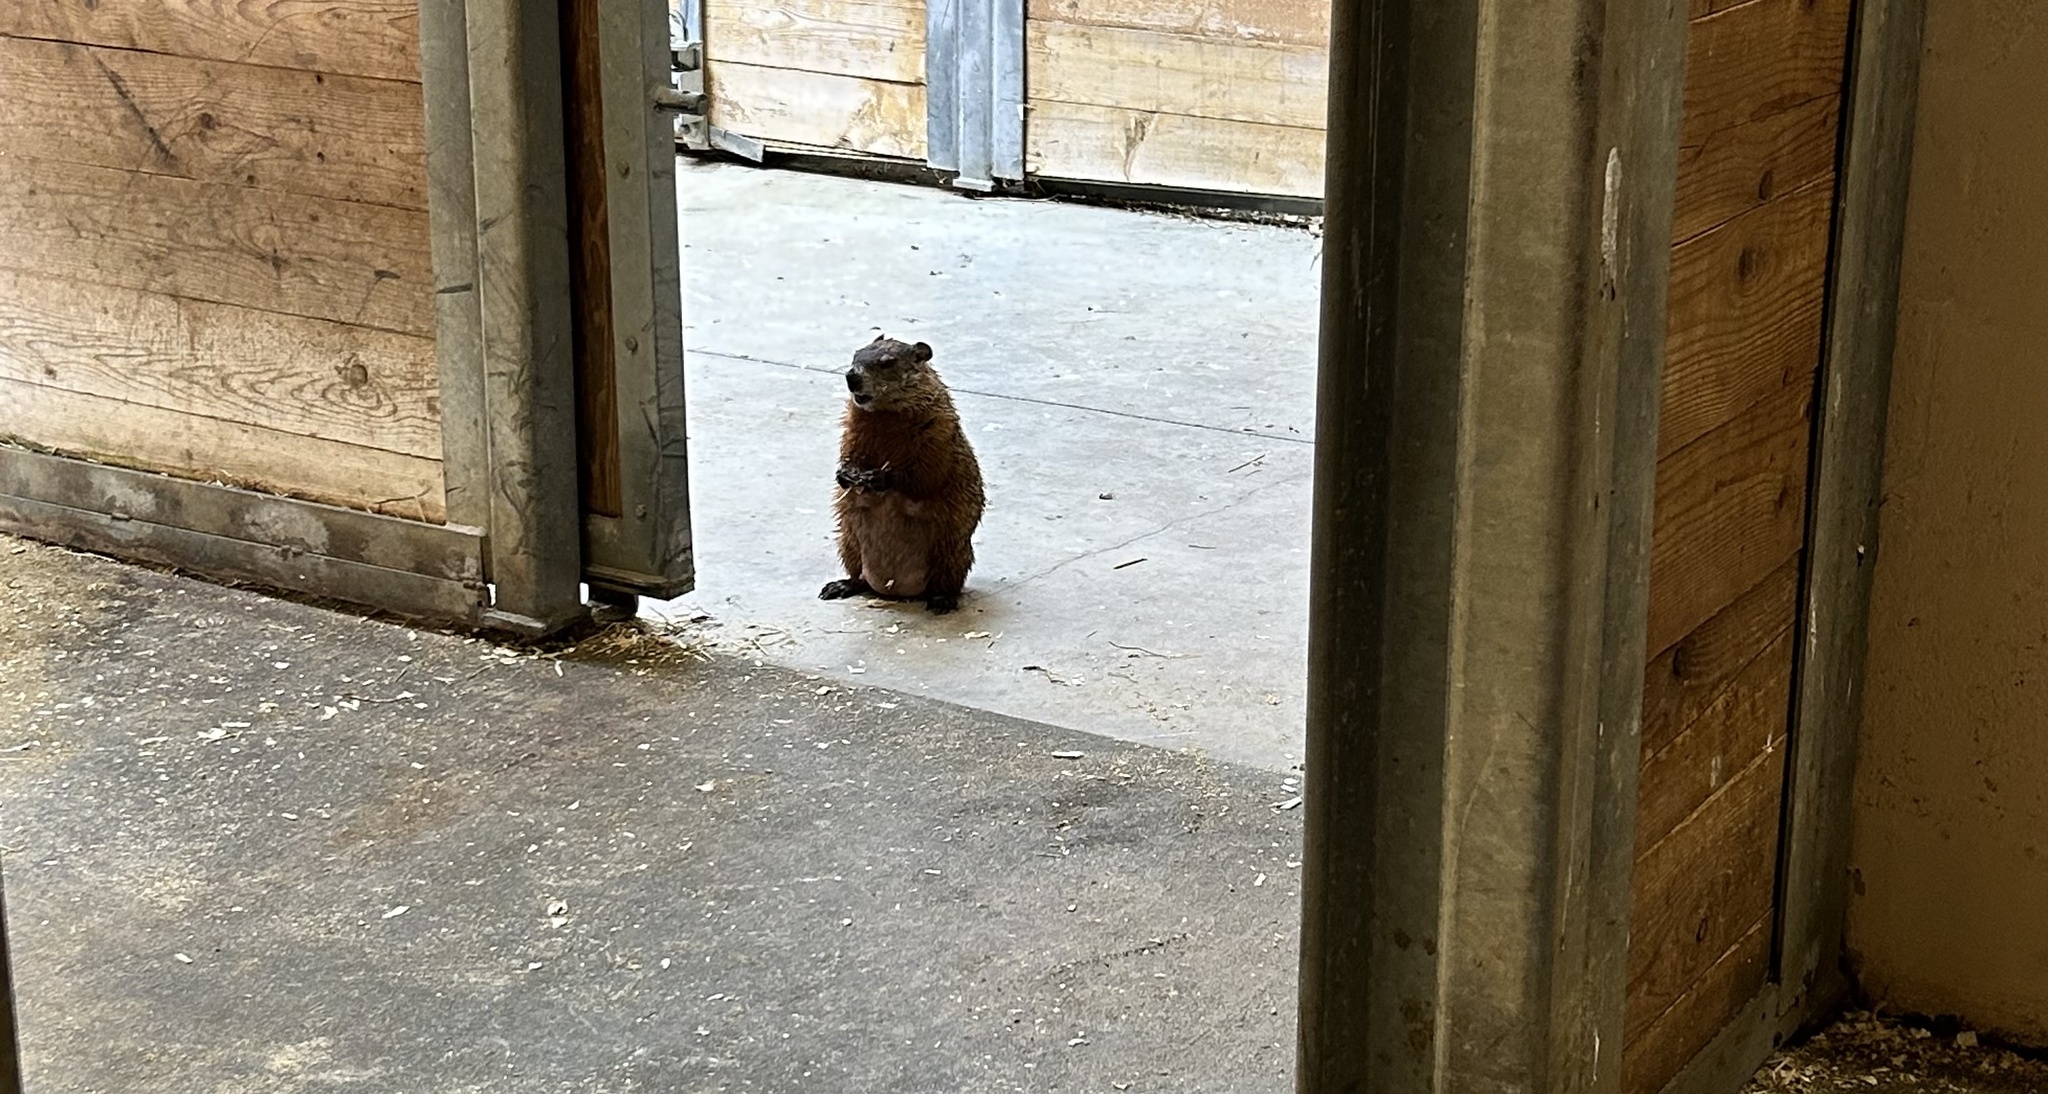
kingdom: Animalia
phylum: Chordata
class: Mammalia
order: Rodentia
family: Sciuridae
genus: Marmota
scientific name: Marmota monax
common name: Groundhog
